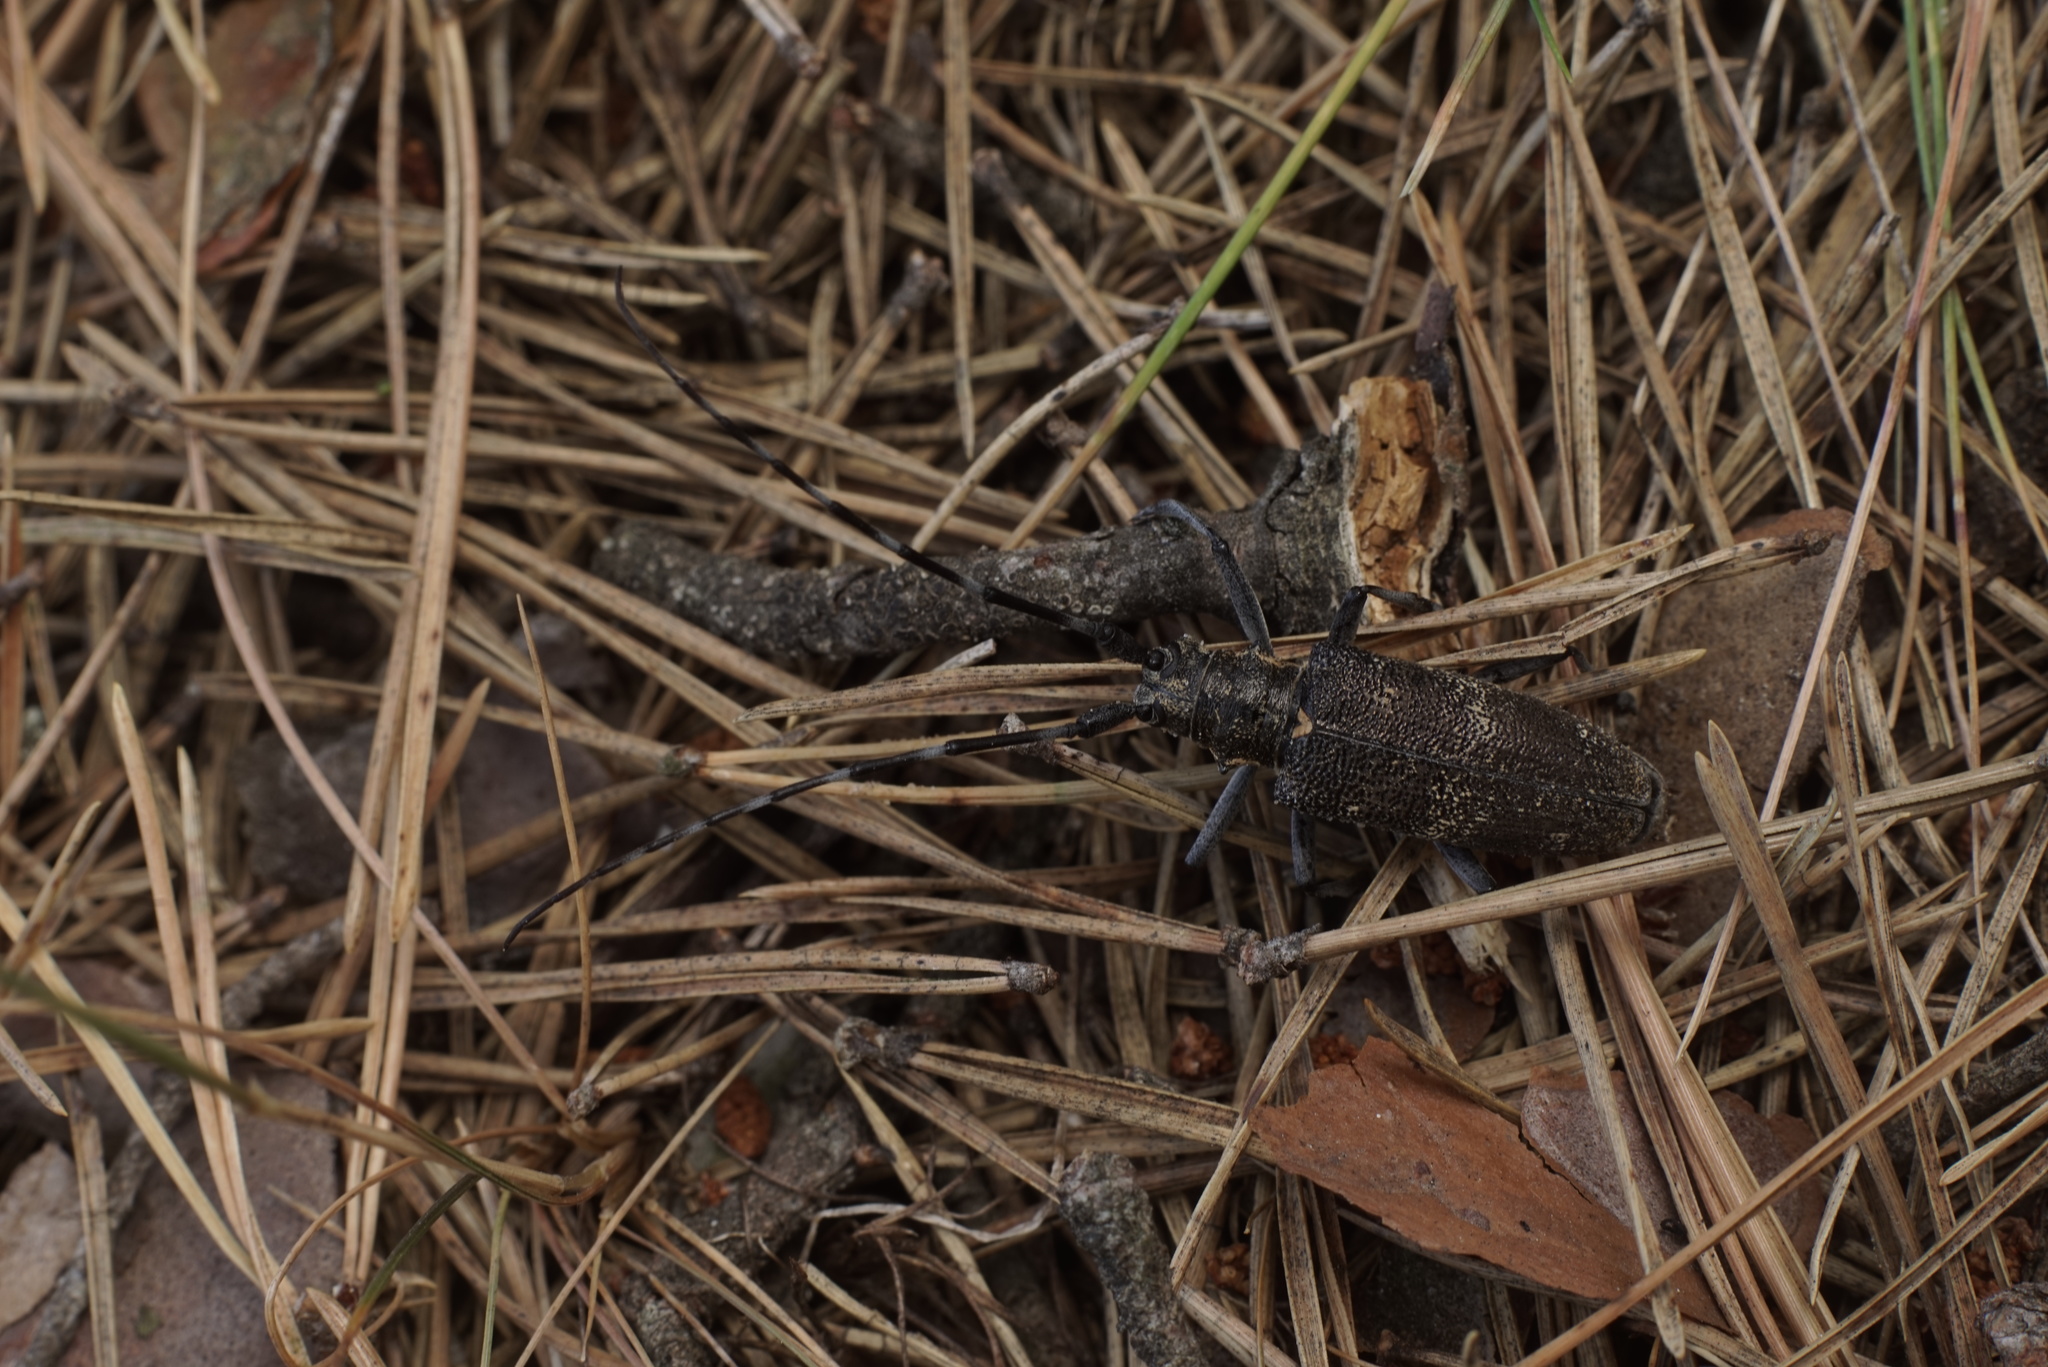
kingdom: Animalia
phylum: Arthropoda
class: Insecta
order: Coleoptera
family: Cerambycidae
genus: Monochamus
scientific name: Monochamus galloprovincialis
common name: Pine sawyer
